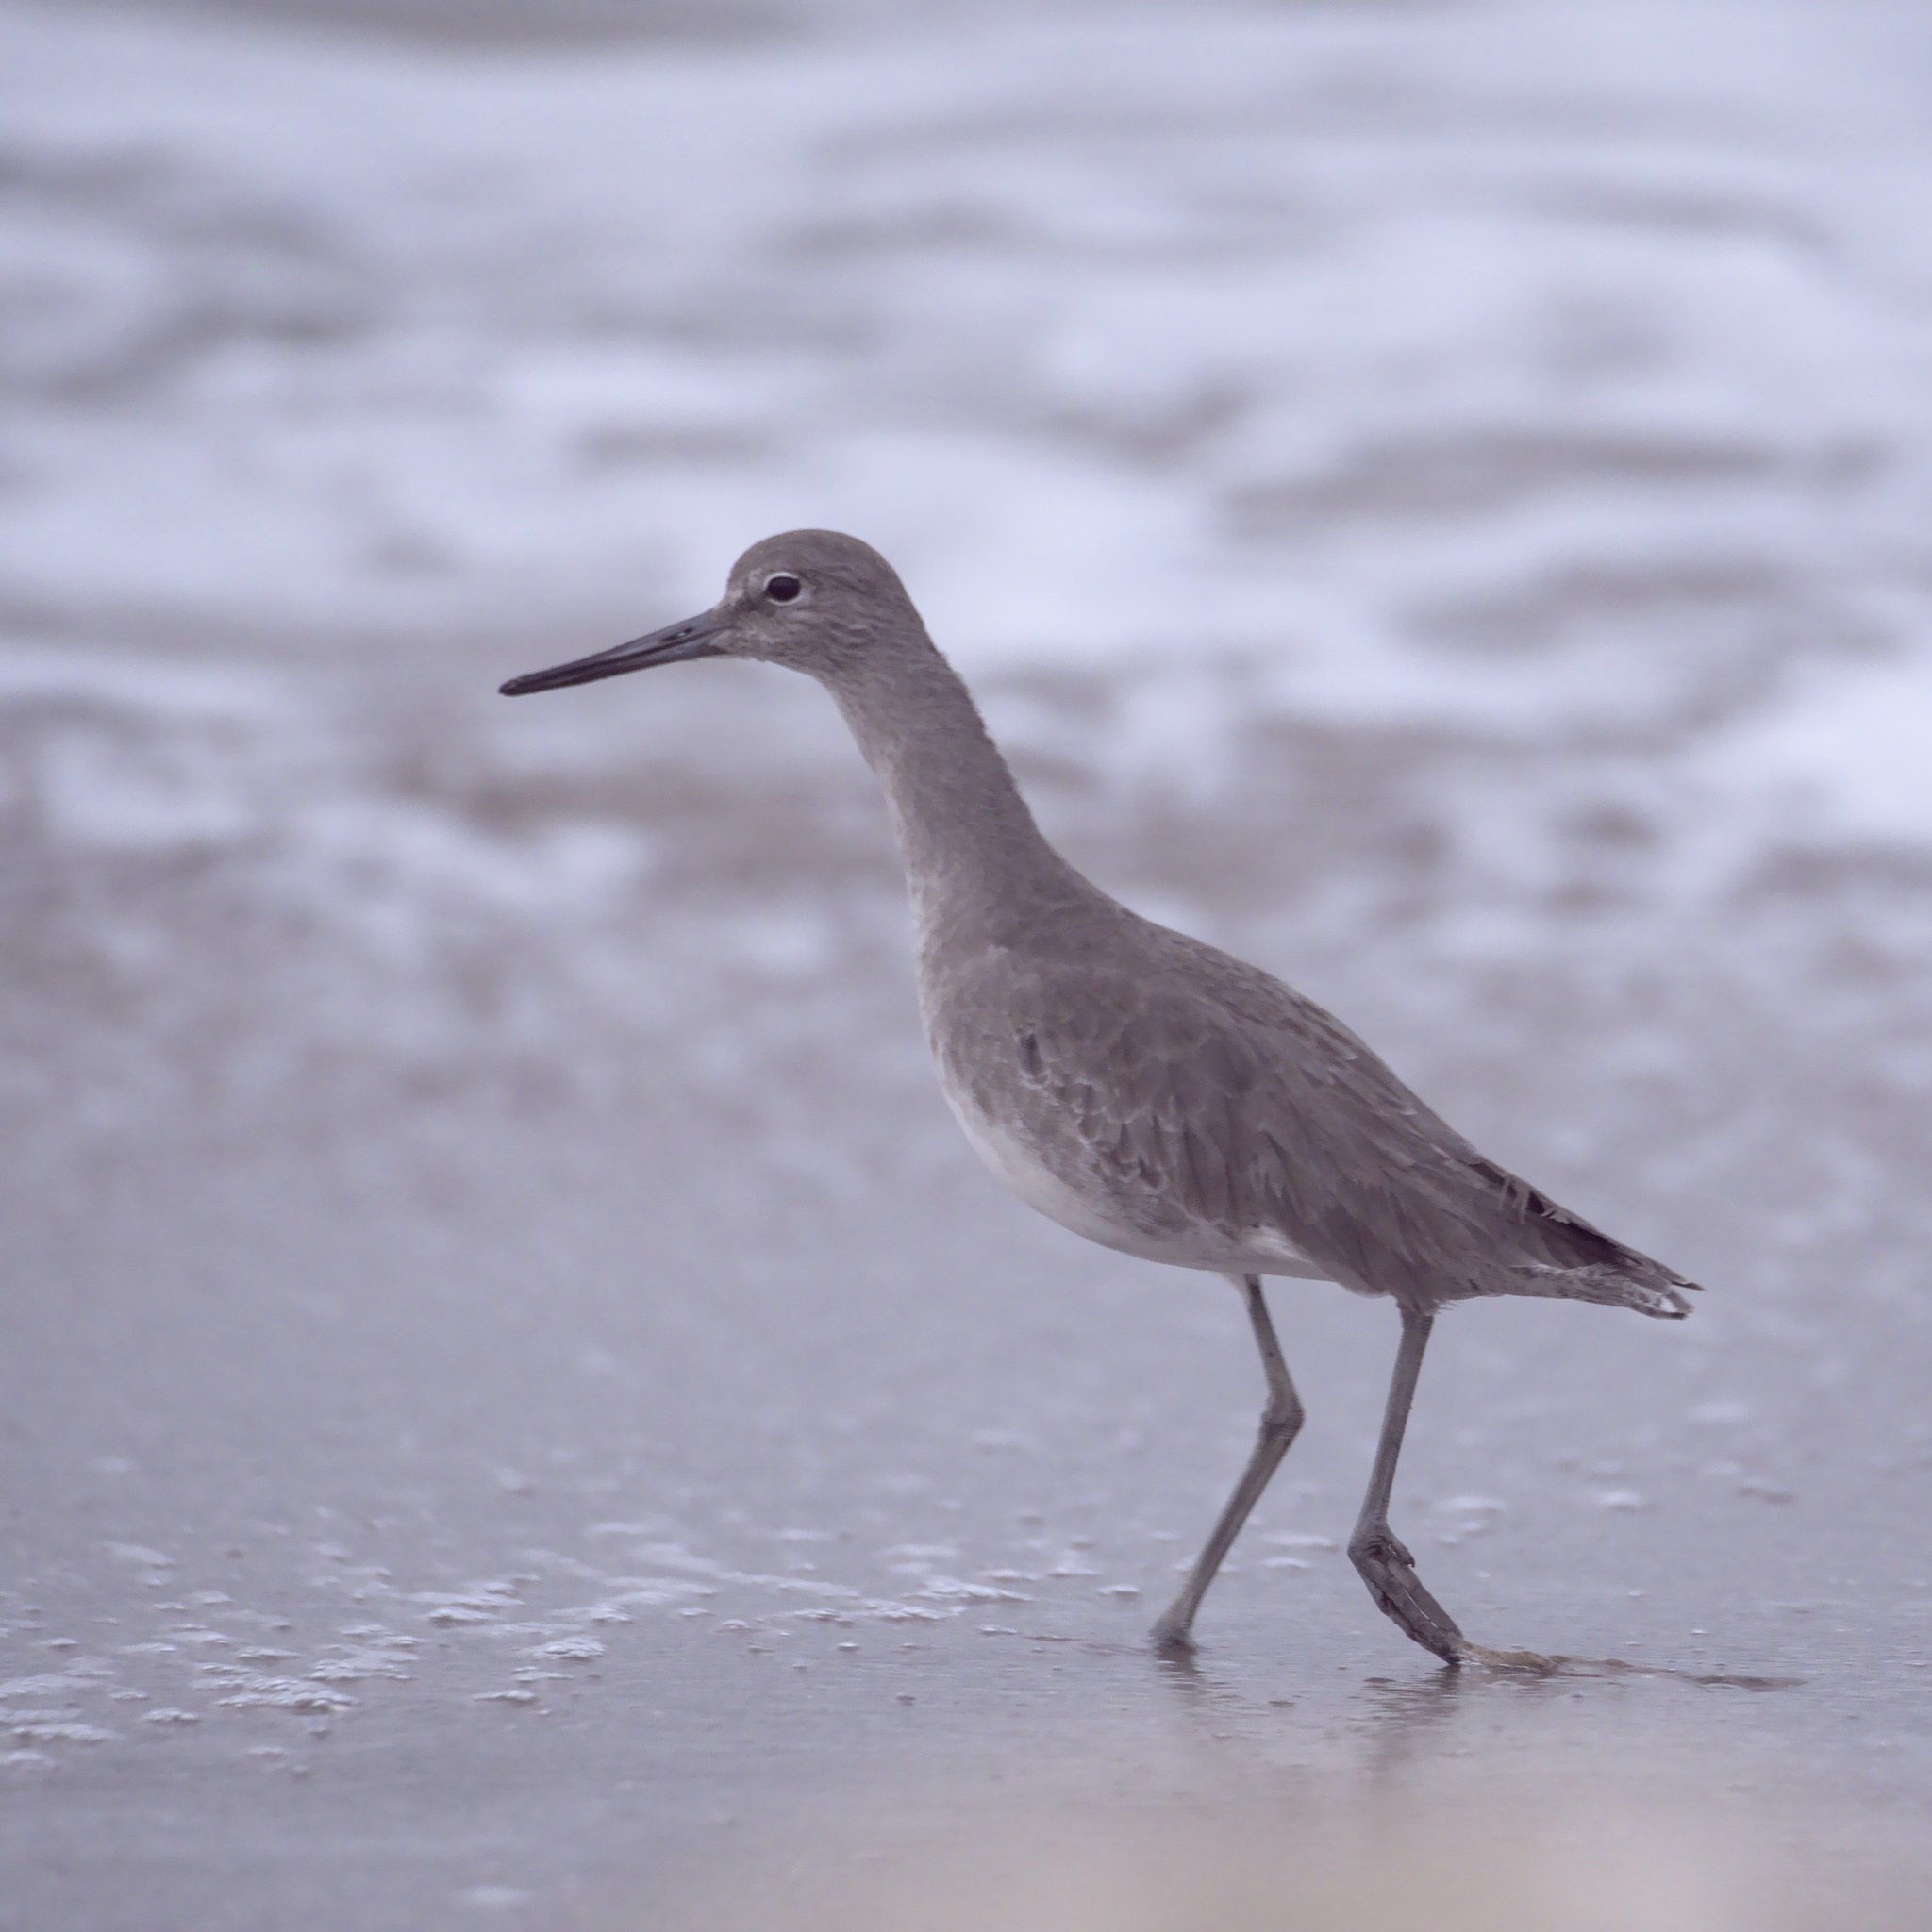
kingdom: Animalia
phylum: Chordata
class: Aves
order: Charadriiformes
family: Scolopacidae
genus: Tringa
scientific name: Tringa semipalmata
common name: Willet
